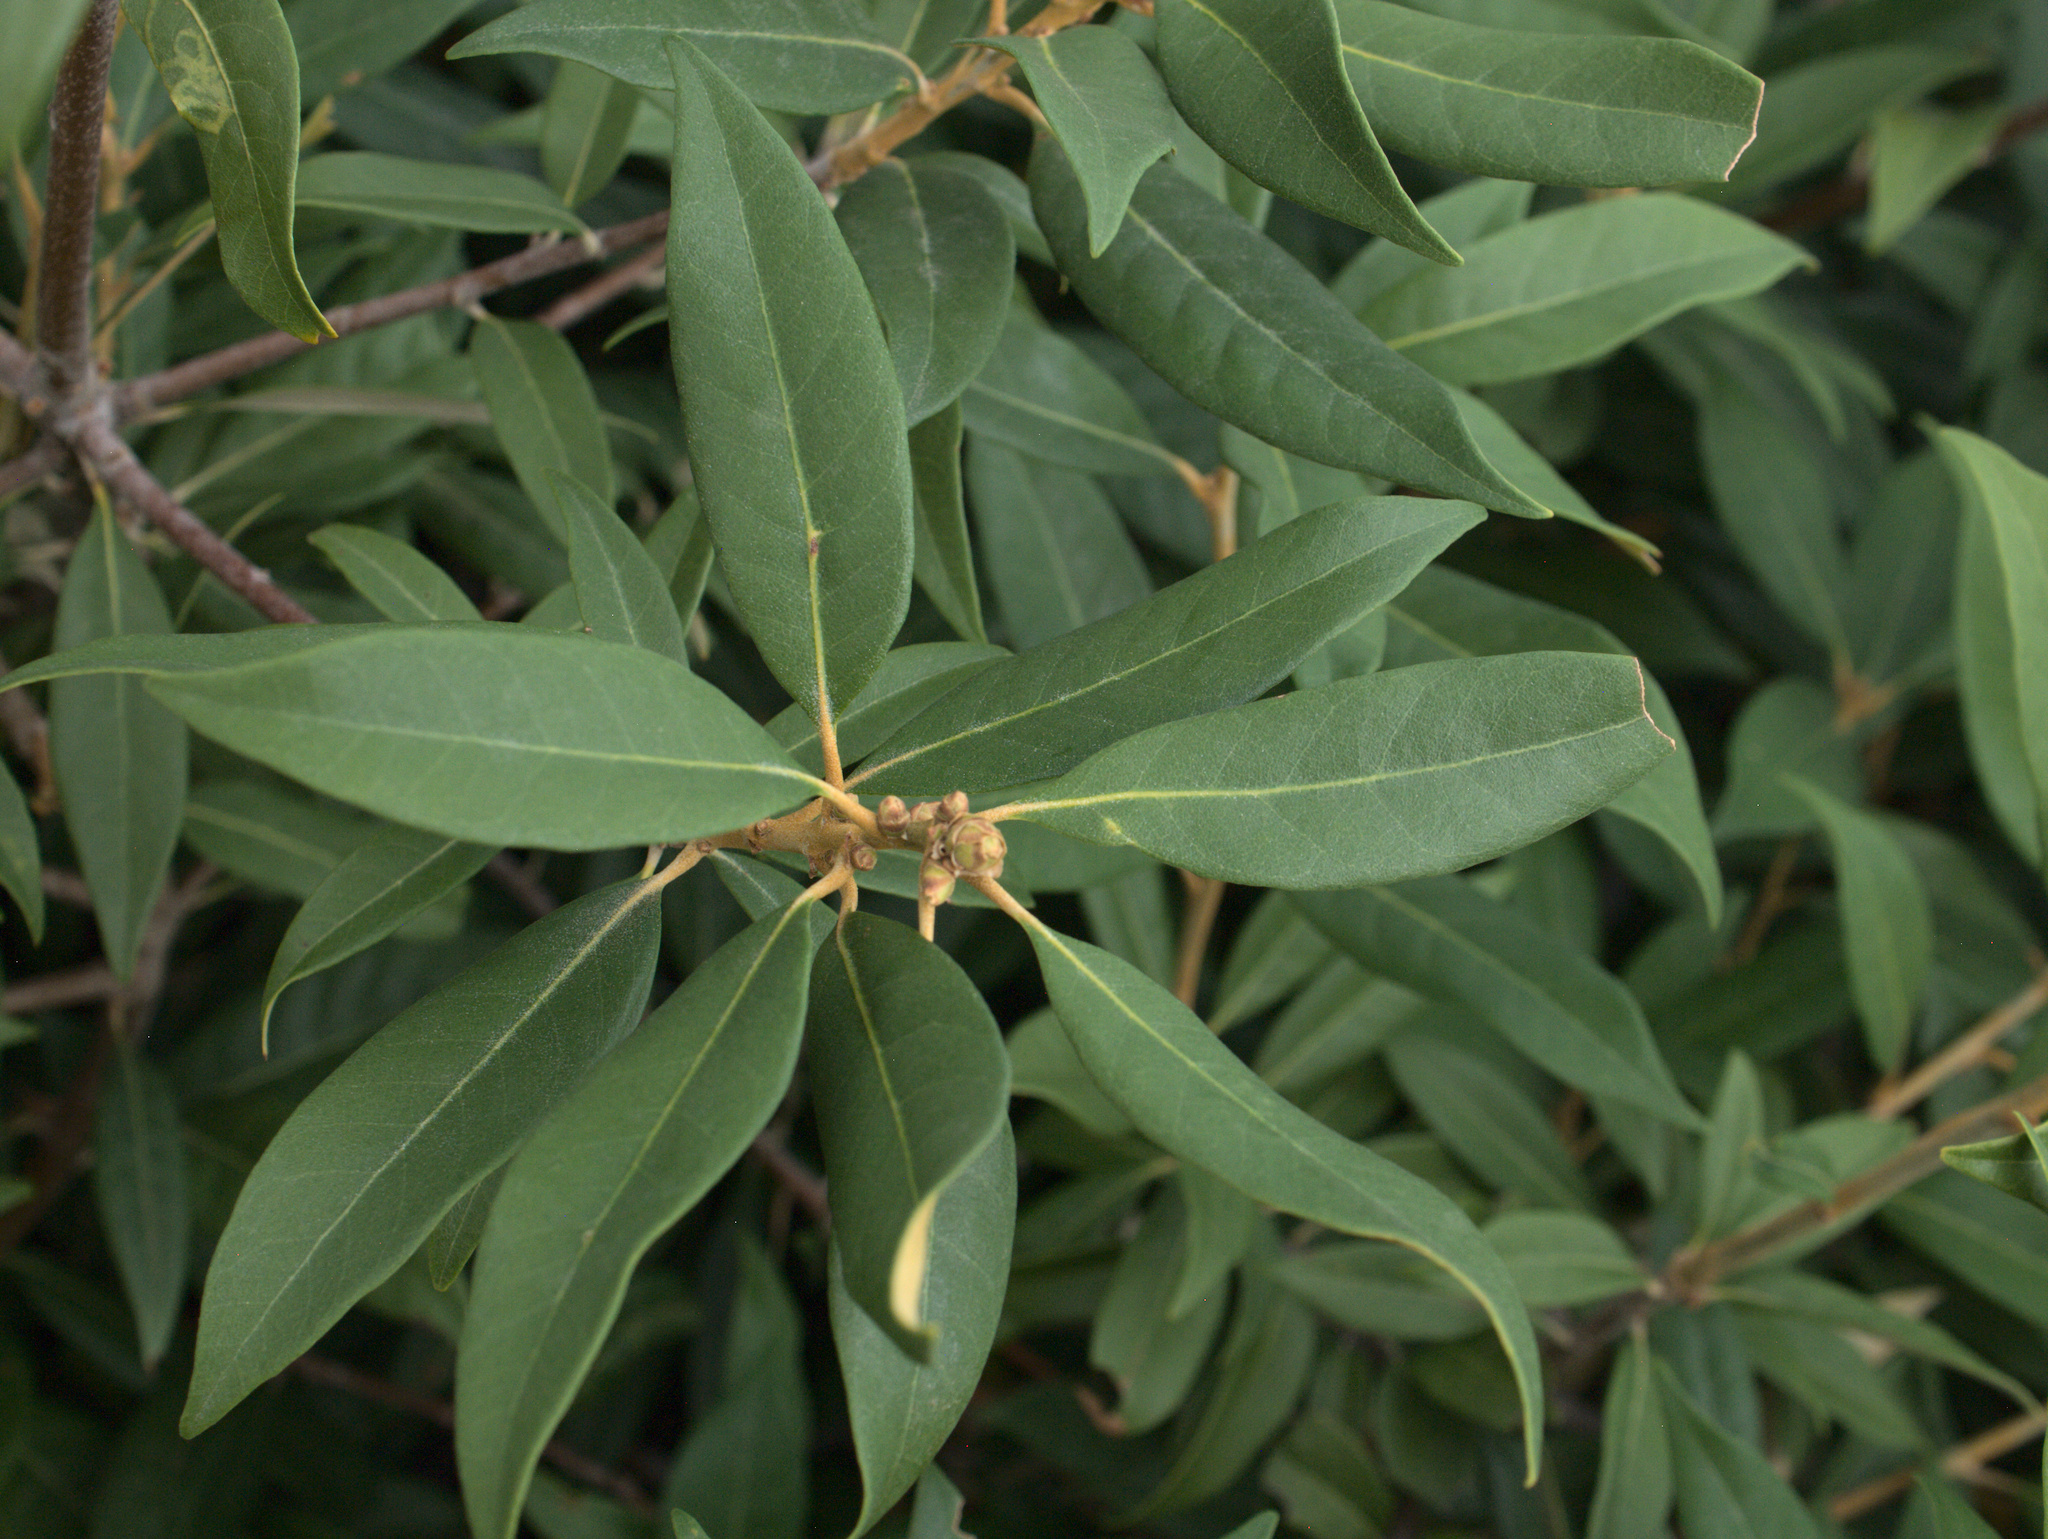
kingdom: Plantae
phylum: Tracheophyta
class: Magnoliopsida
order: Fagales
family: Fagaceae
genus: Chrysolepis
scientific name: Chrysolepis chrysophylla
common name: Giant chinquapin
